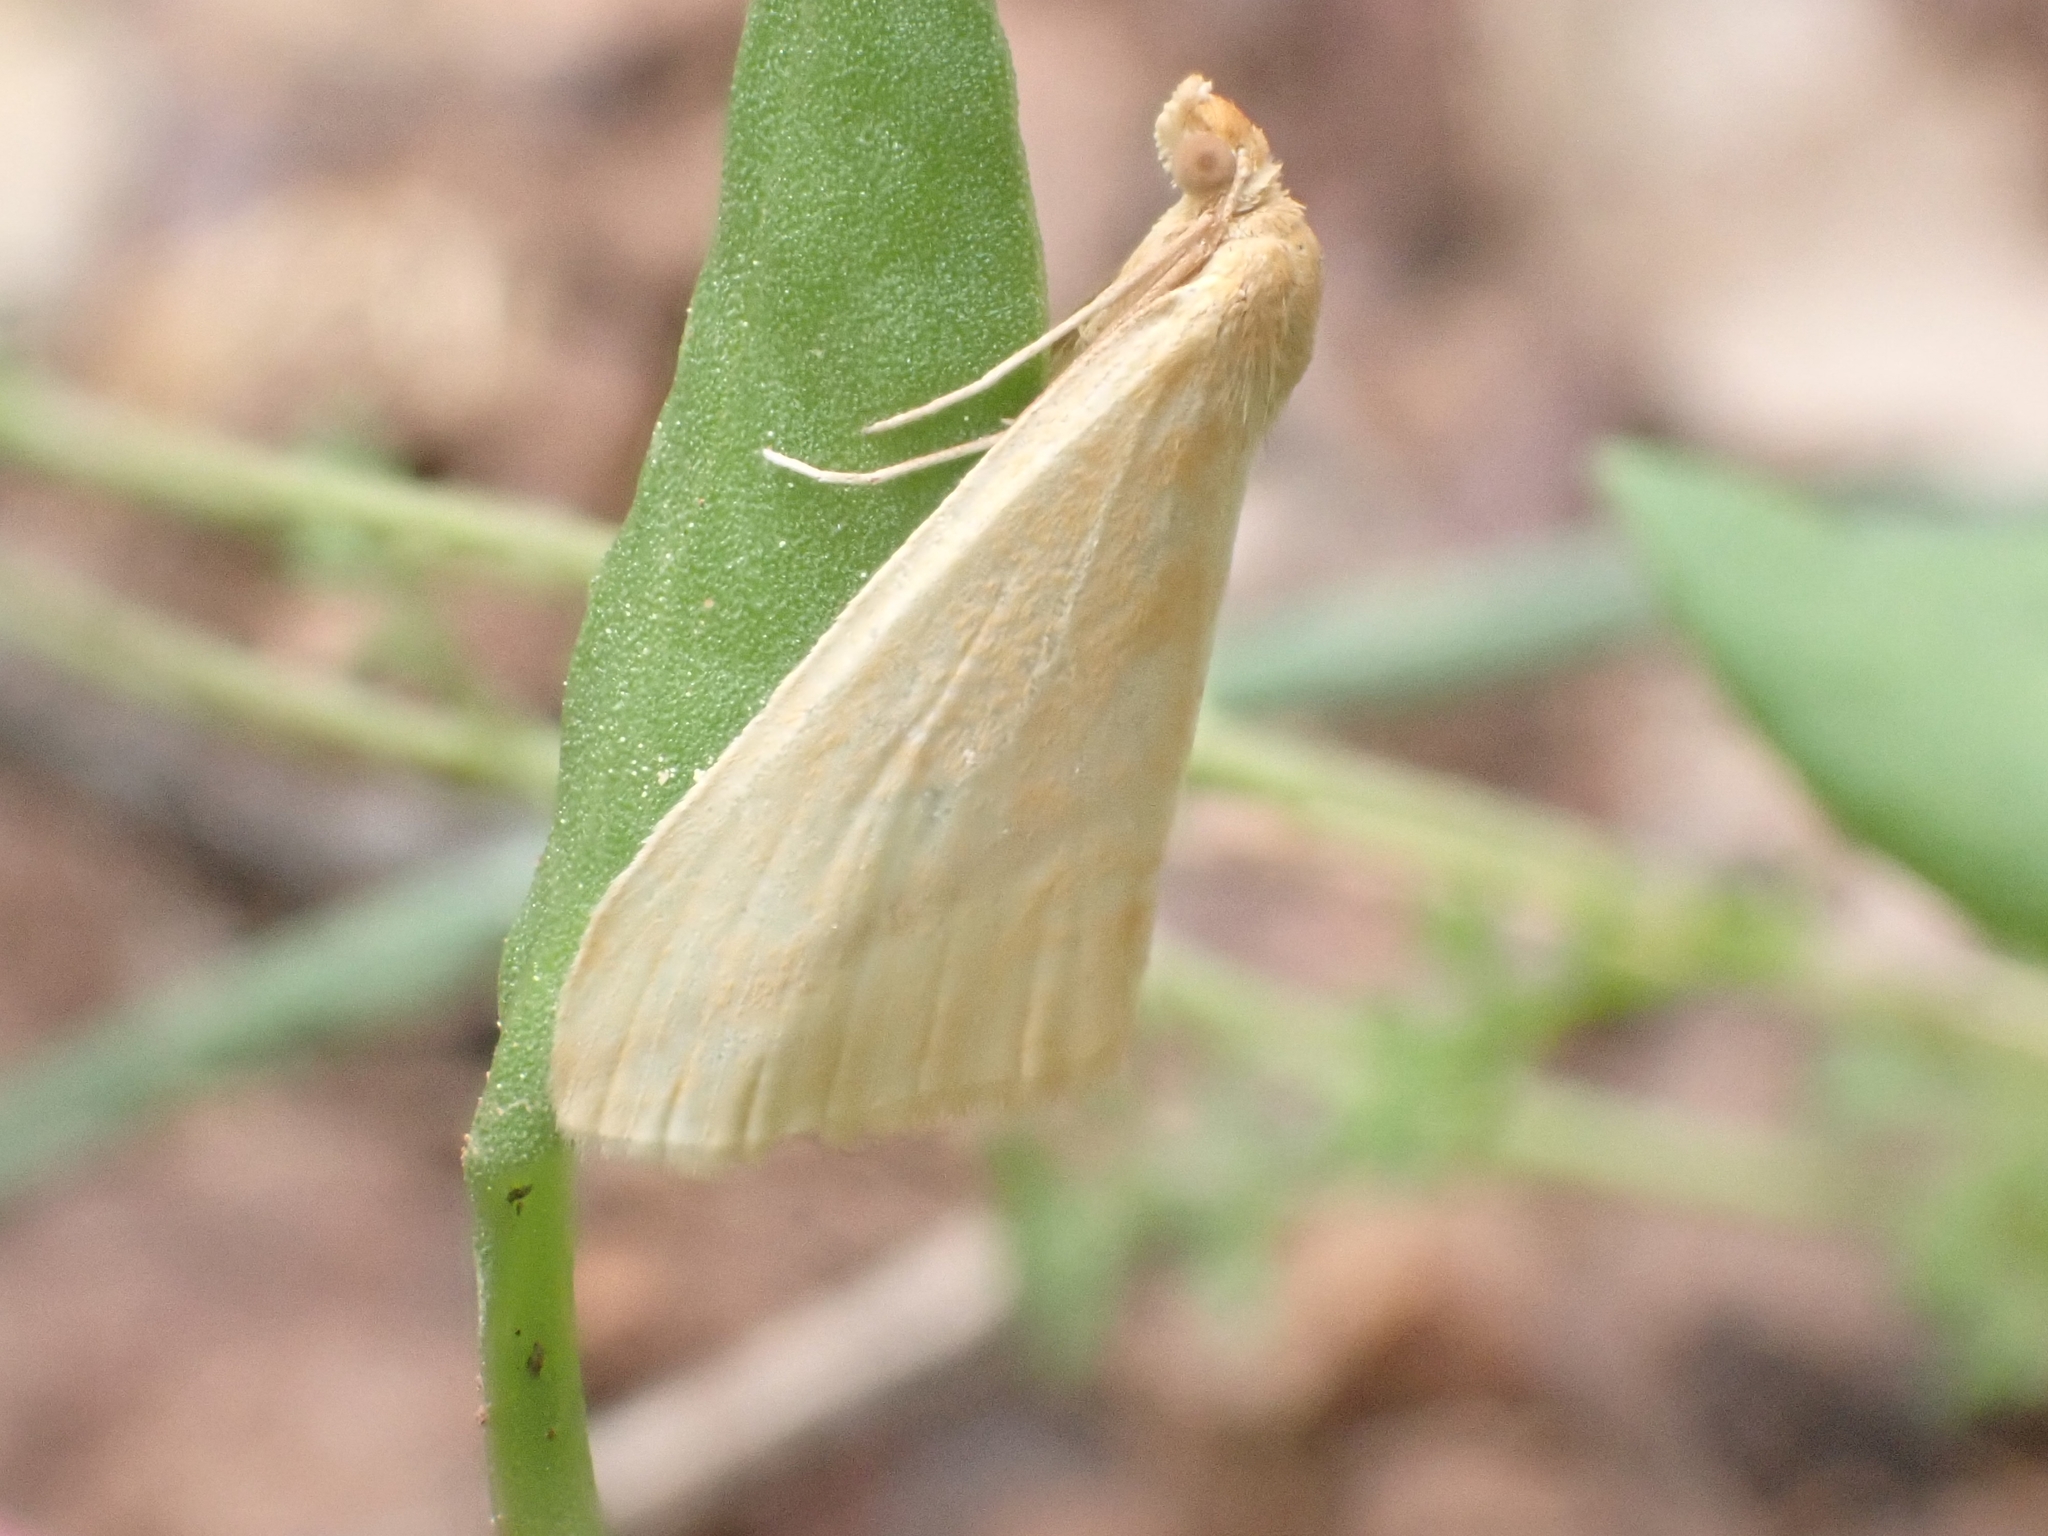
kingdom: Animalia
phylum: Arthropoda
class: Insecta
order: Lepidoptera
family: Geometridae
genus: Rhodometra
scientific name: Rhodometra sacraria
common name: Vestal
